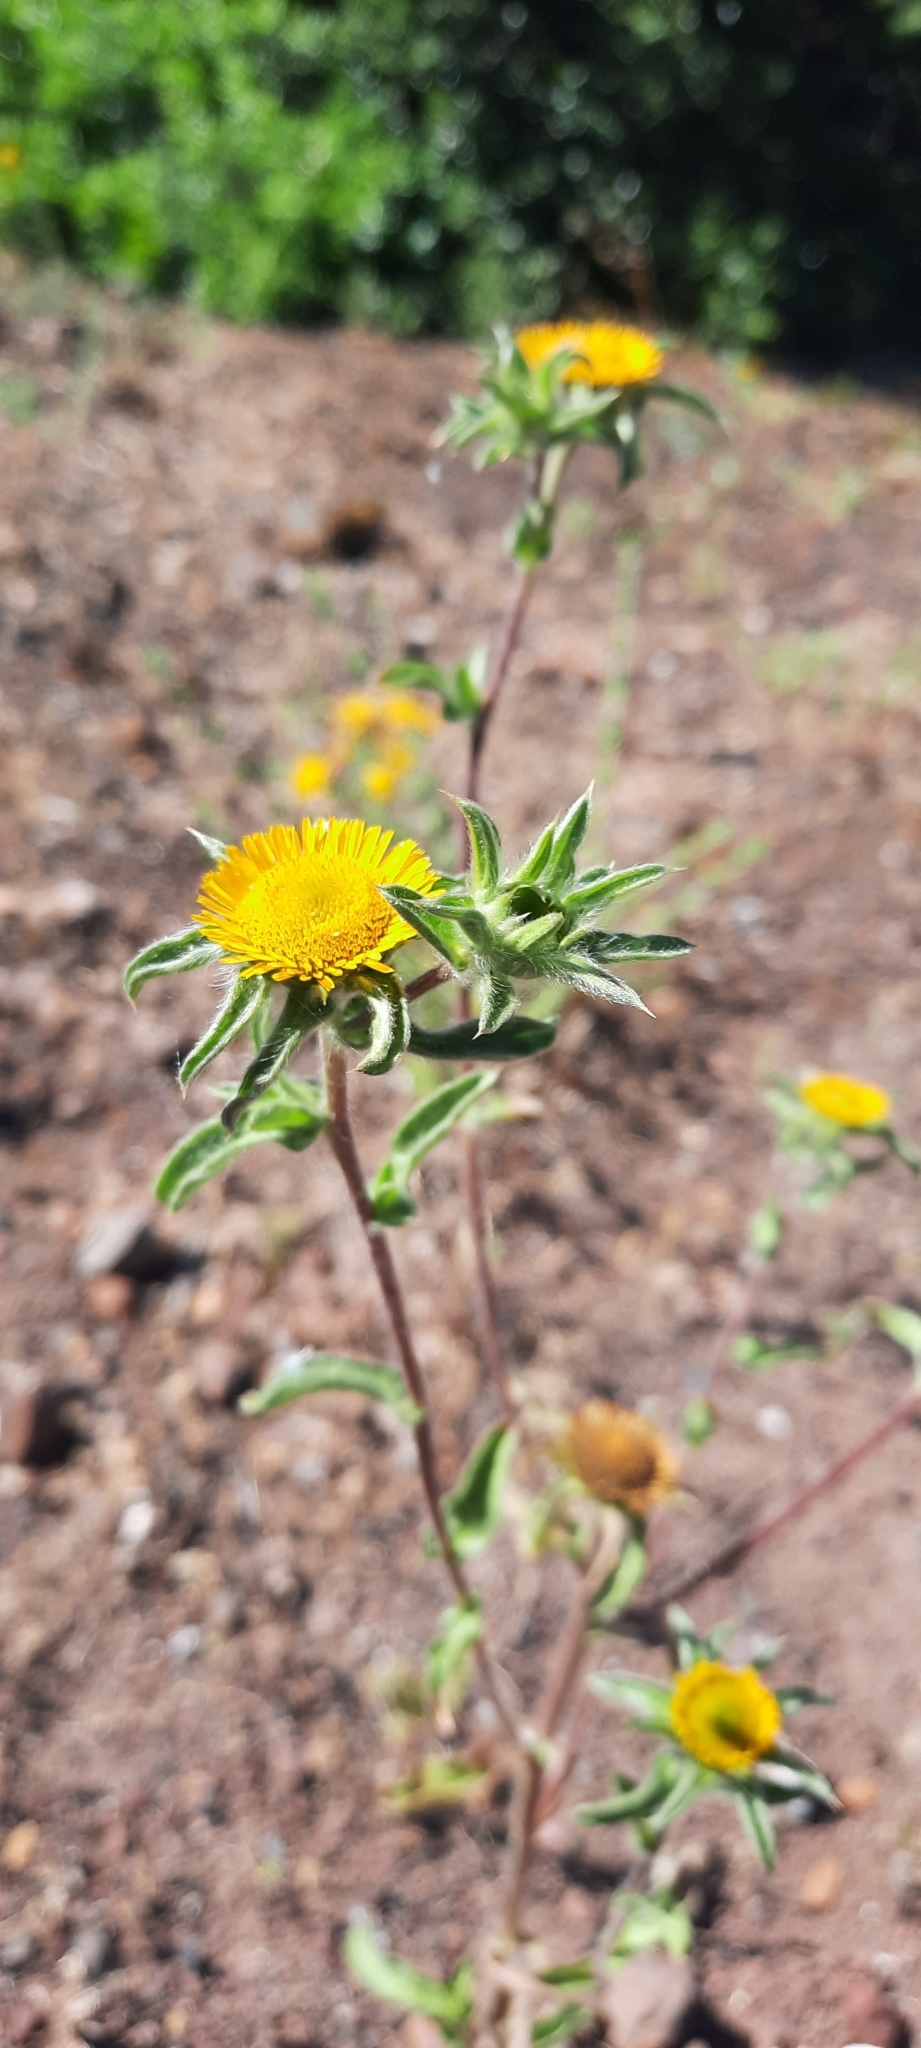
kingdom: Plantae
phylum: Tracheophyta
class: Magnoliopsida
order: Asterales
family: Asteraceae
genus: Pallenis
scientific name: Pallenis spinosa
